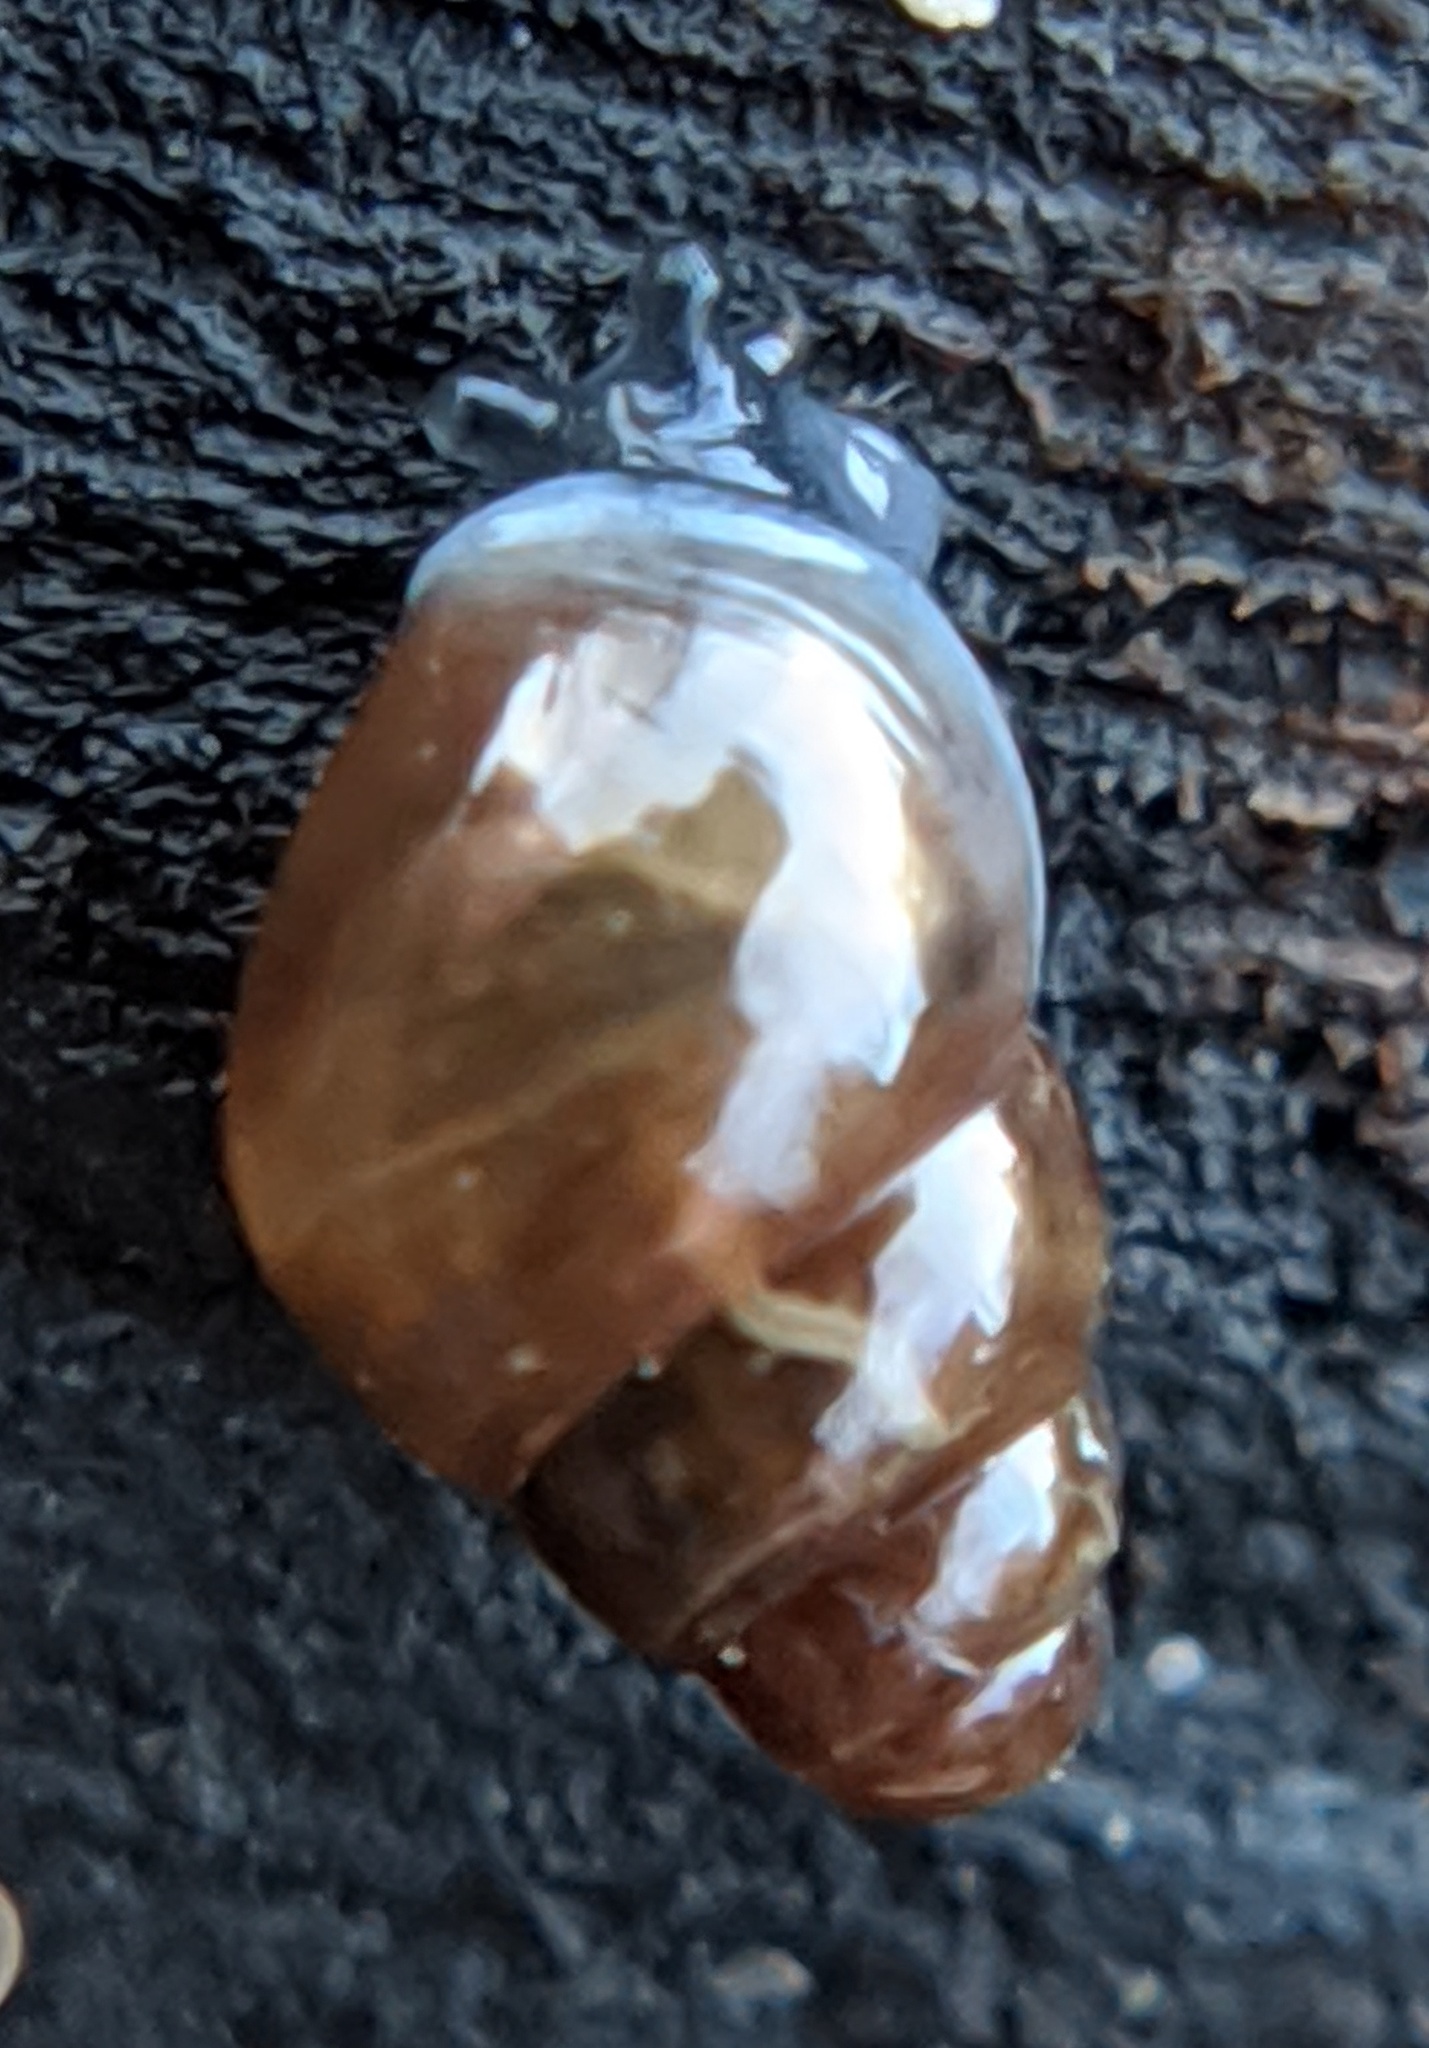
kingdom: Animalia
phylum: Mollusca
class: Gastropoda
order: Stylommatophora
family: Cochlicopidae
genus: Cochlicopa
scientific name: Cochlicopa lubrica
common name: Glossy pillar snail
